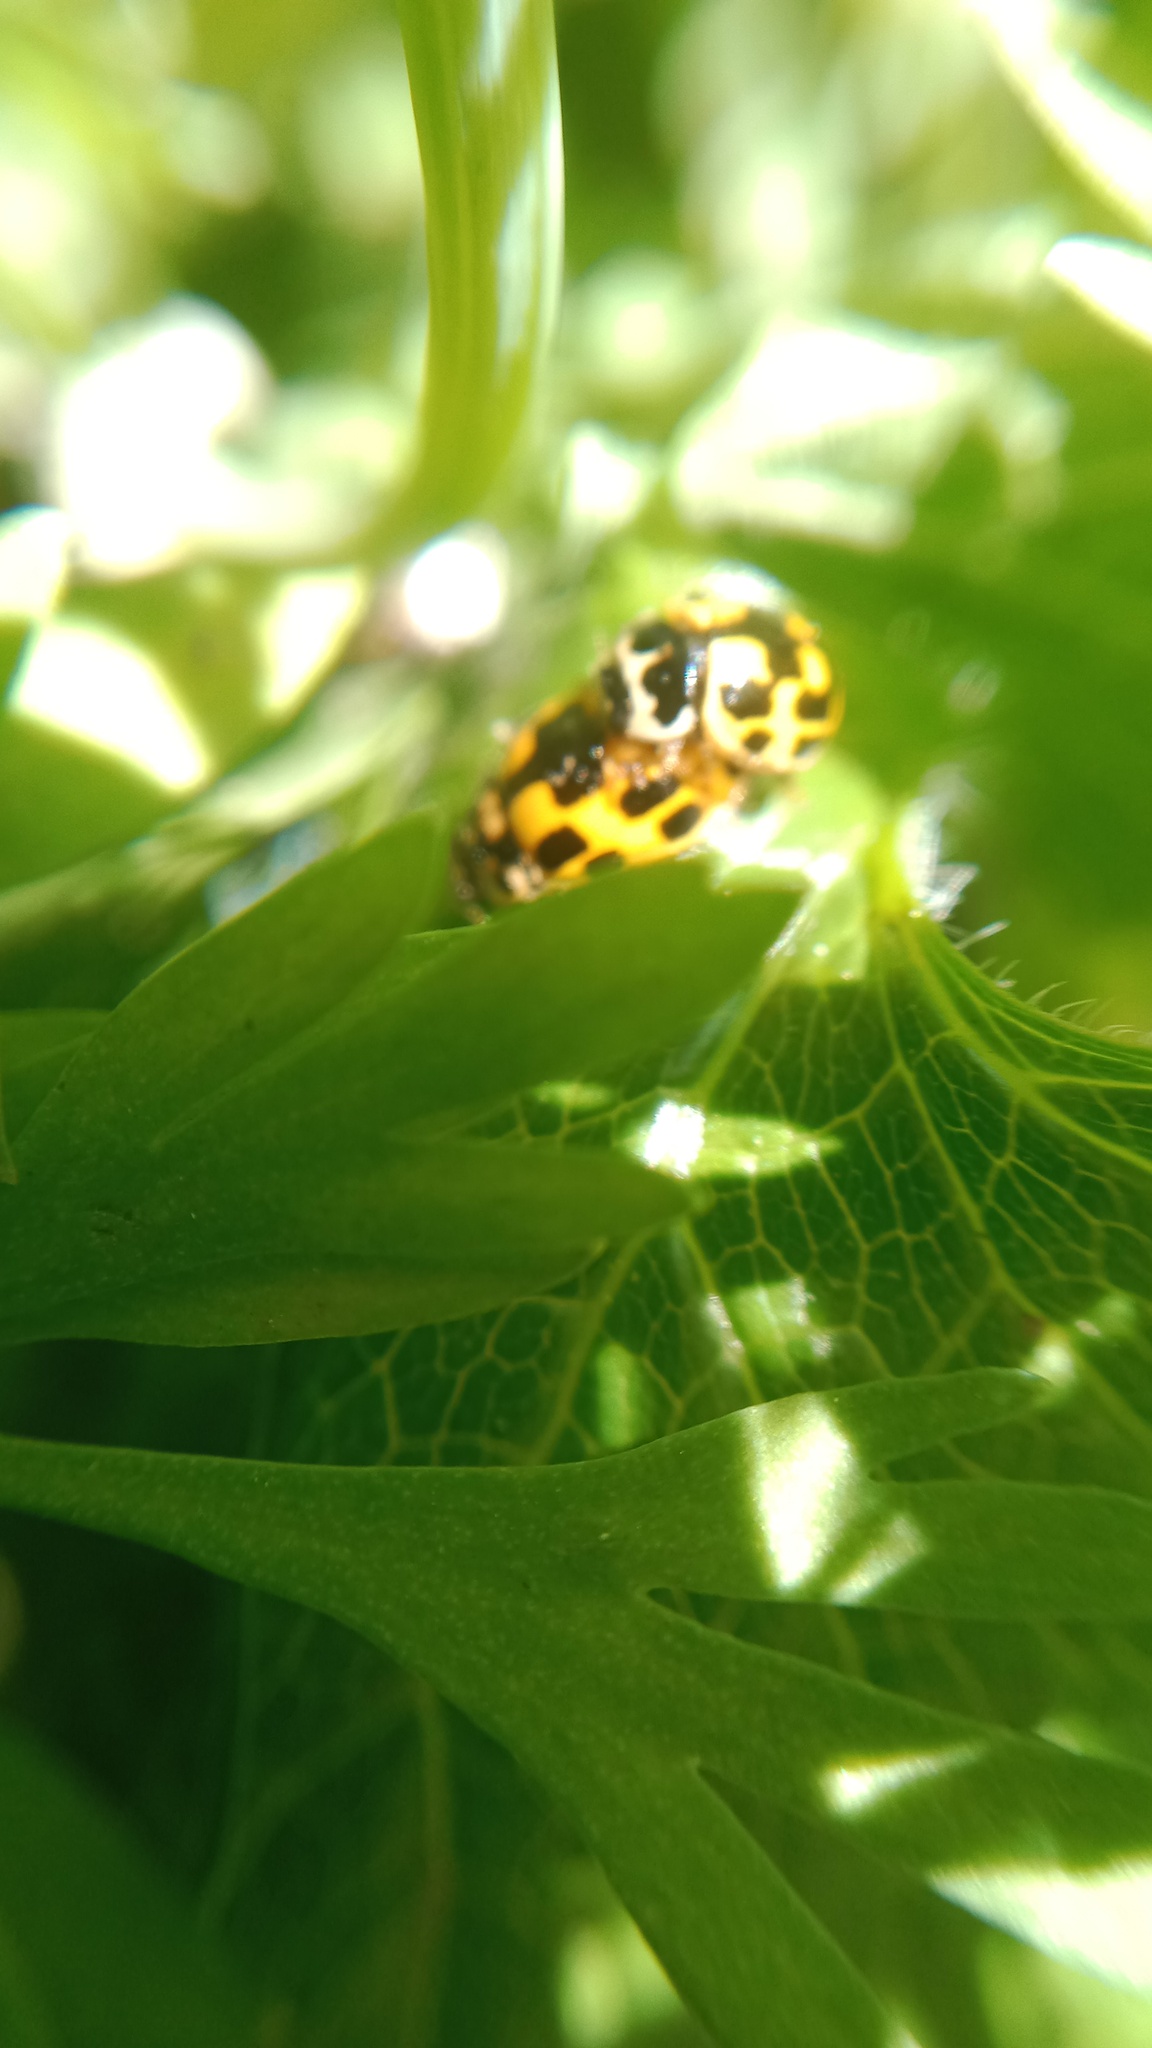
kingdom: Animalia
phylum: Arthropoda
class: Insecta
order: Coleoptera
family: Coccinellidae
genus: Propylaea
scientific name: Propylaea quatuordecimpunctata
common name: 14-spotted ladybird beetle
